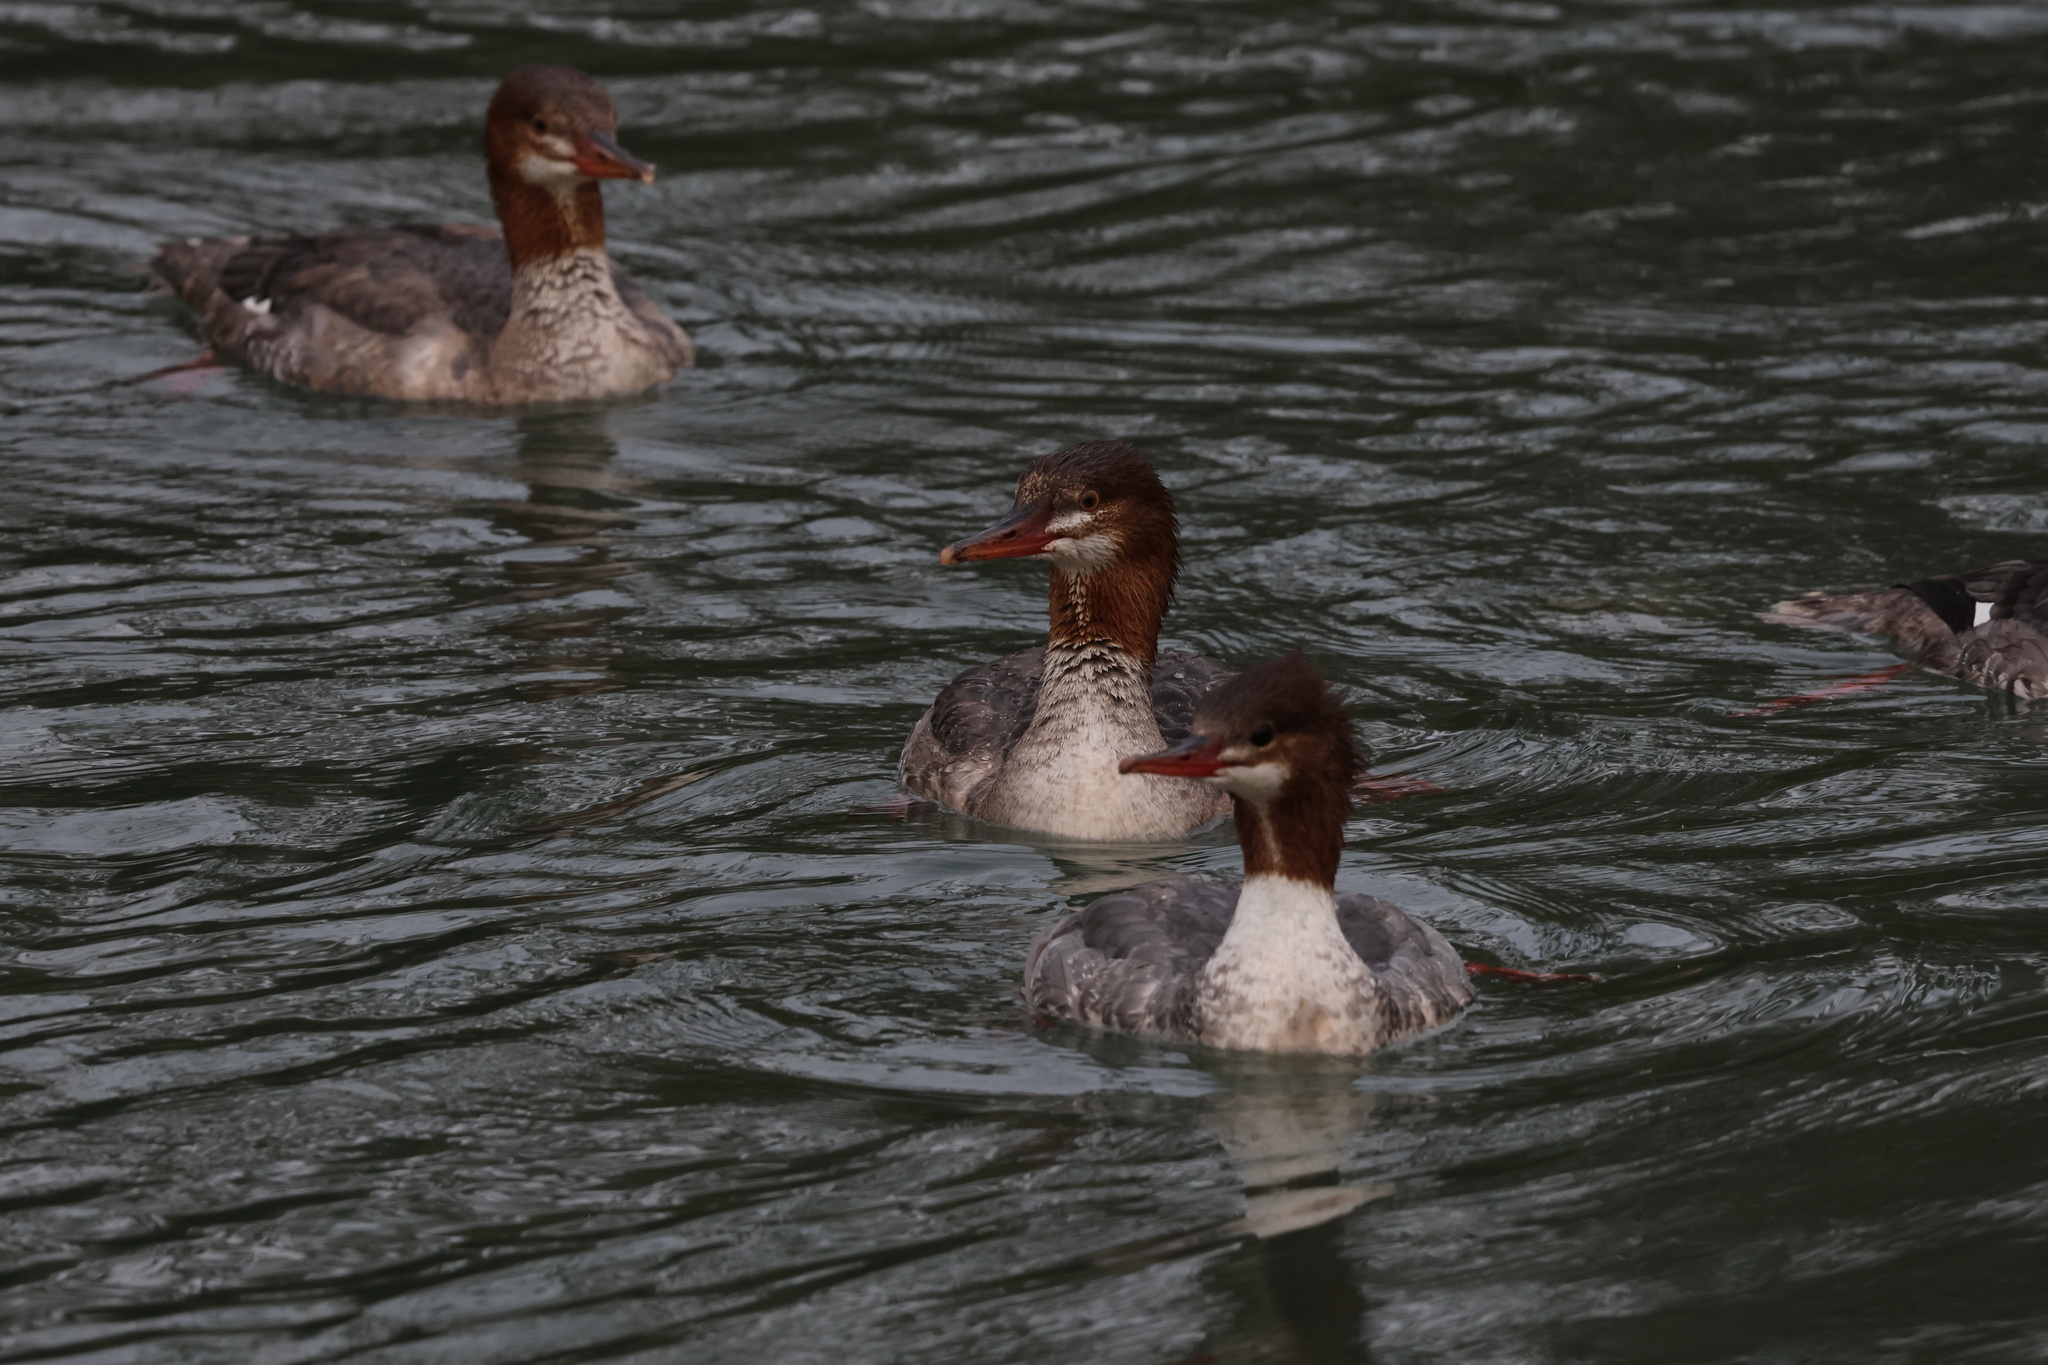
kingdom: Animalia
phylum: Chordata
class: Aves
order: Anseriformes
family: Anatidae
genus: Mergus
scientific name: Mergus merganser
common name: Common merganser
